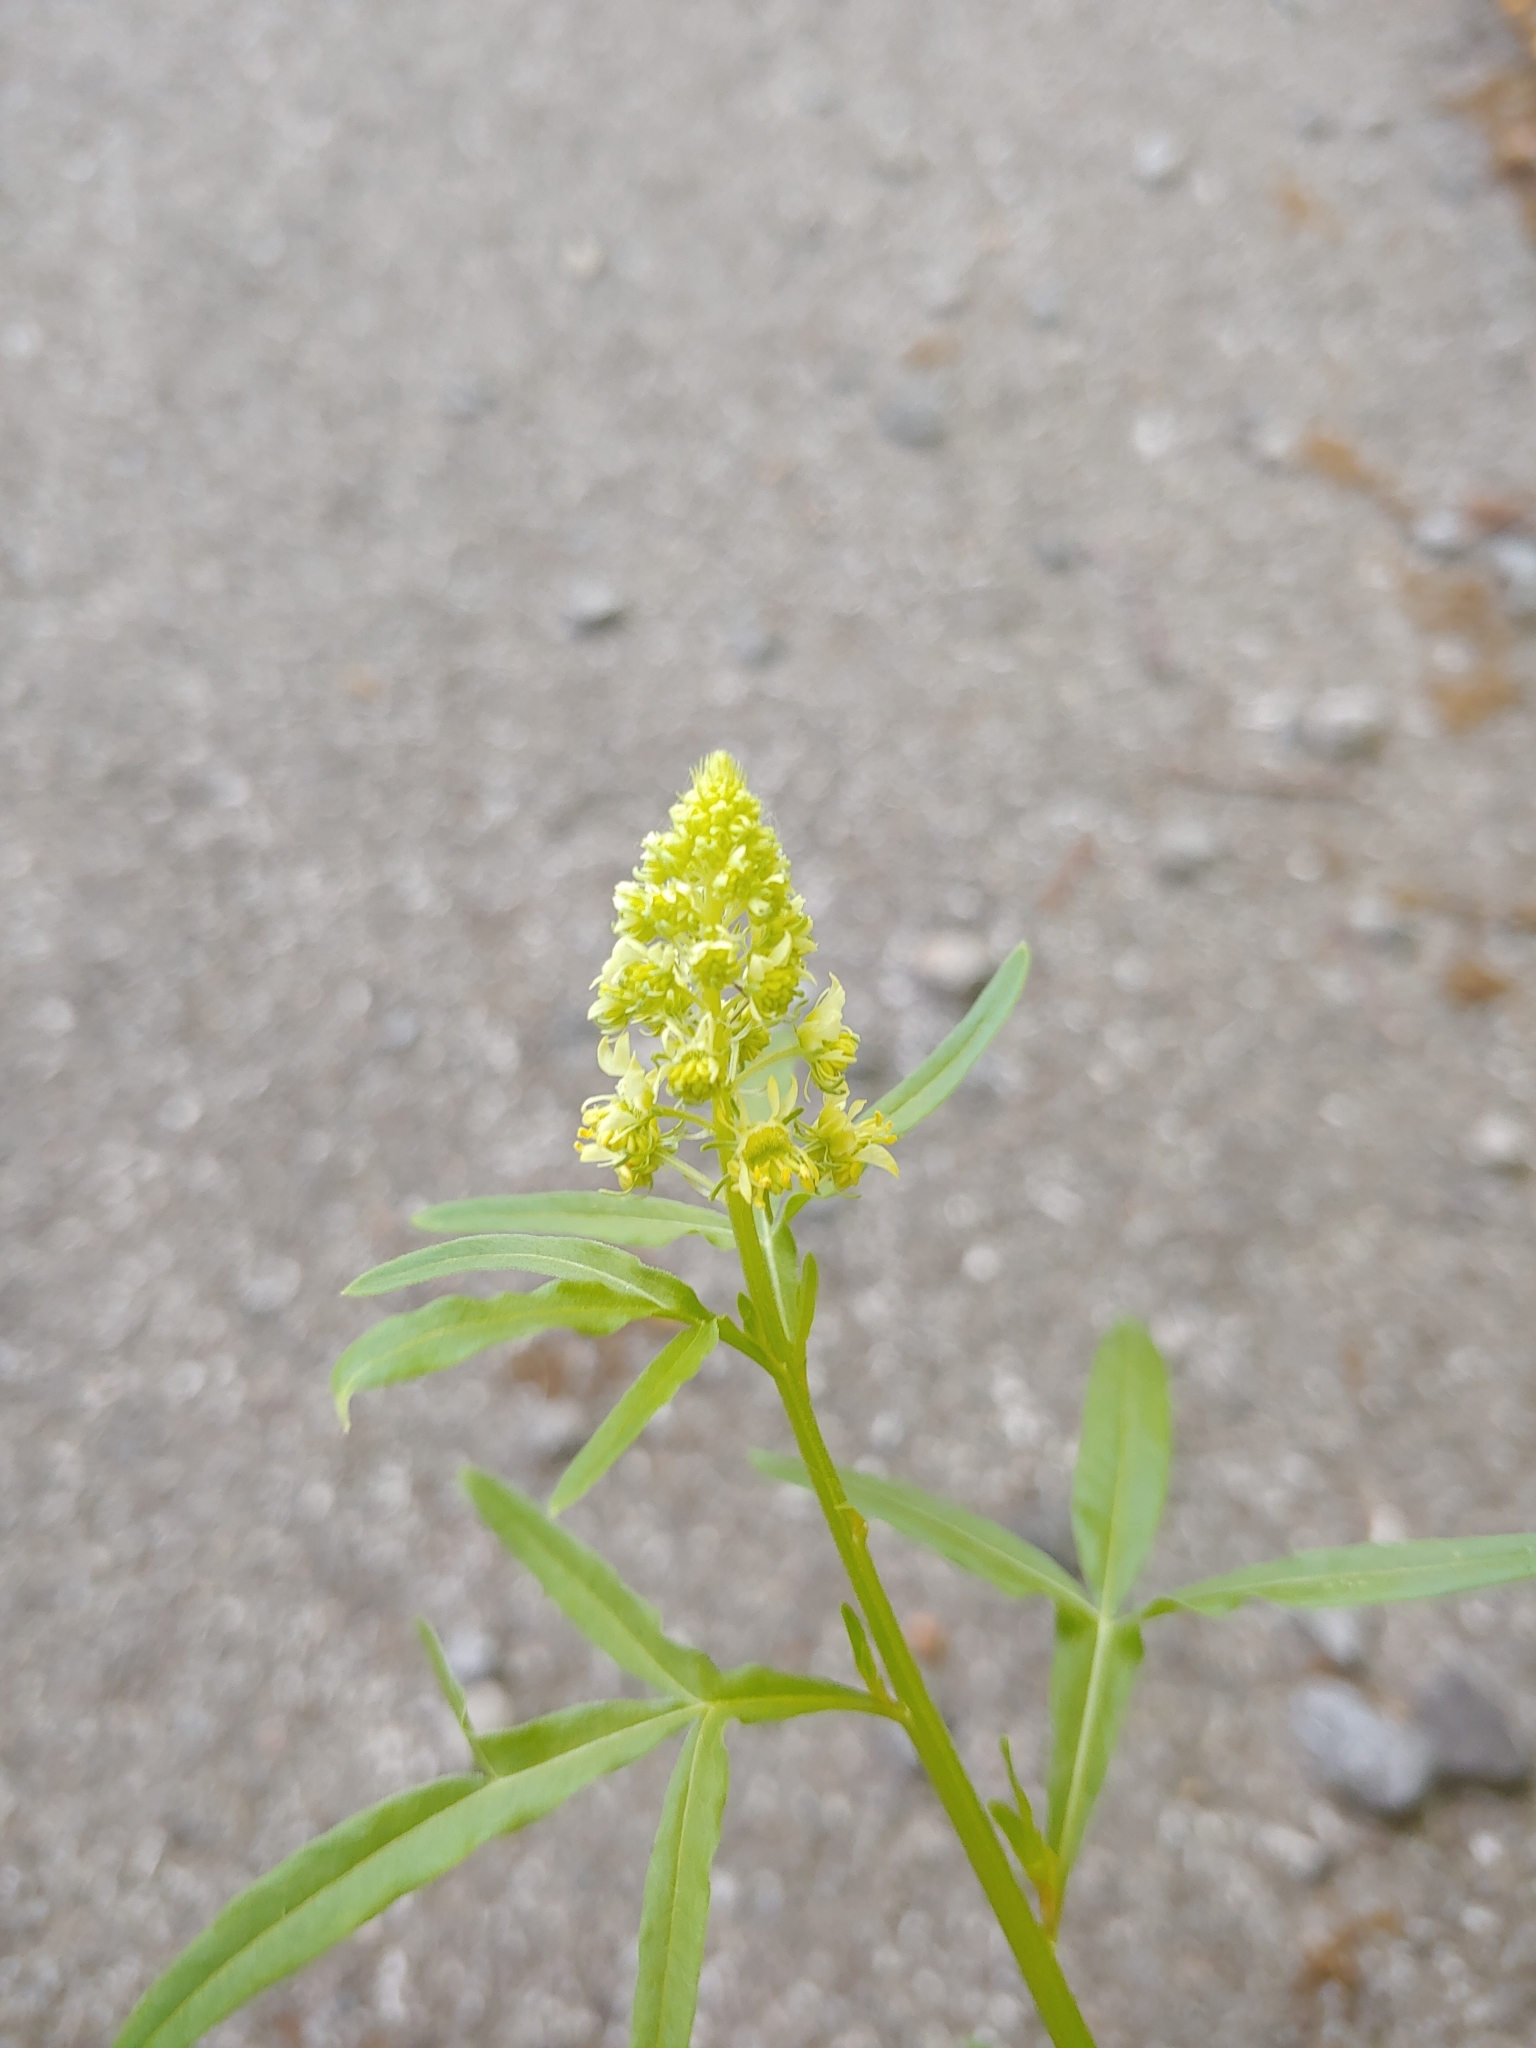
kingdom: Plantae
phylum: Tracheophyta
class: Magnoliopsida
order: Brassicales
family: Resedaceae
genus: Reseda
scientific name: Reseda lutea
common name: Wild mignonette
